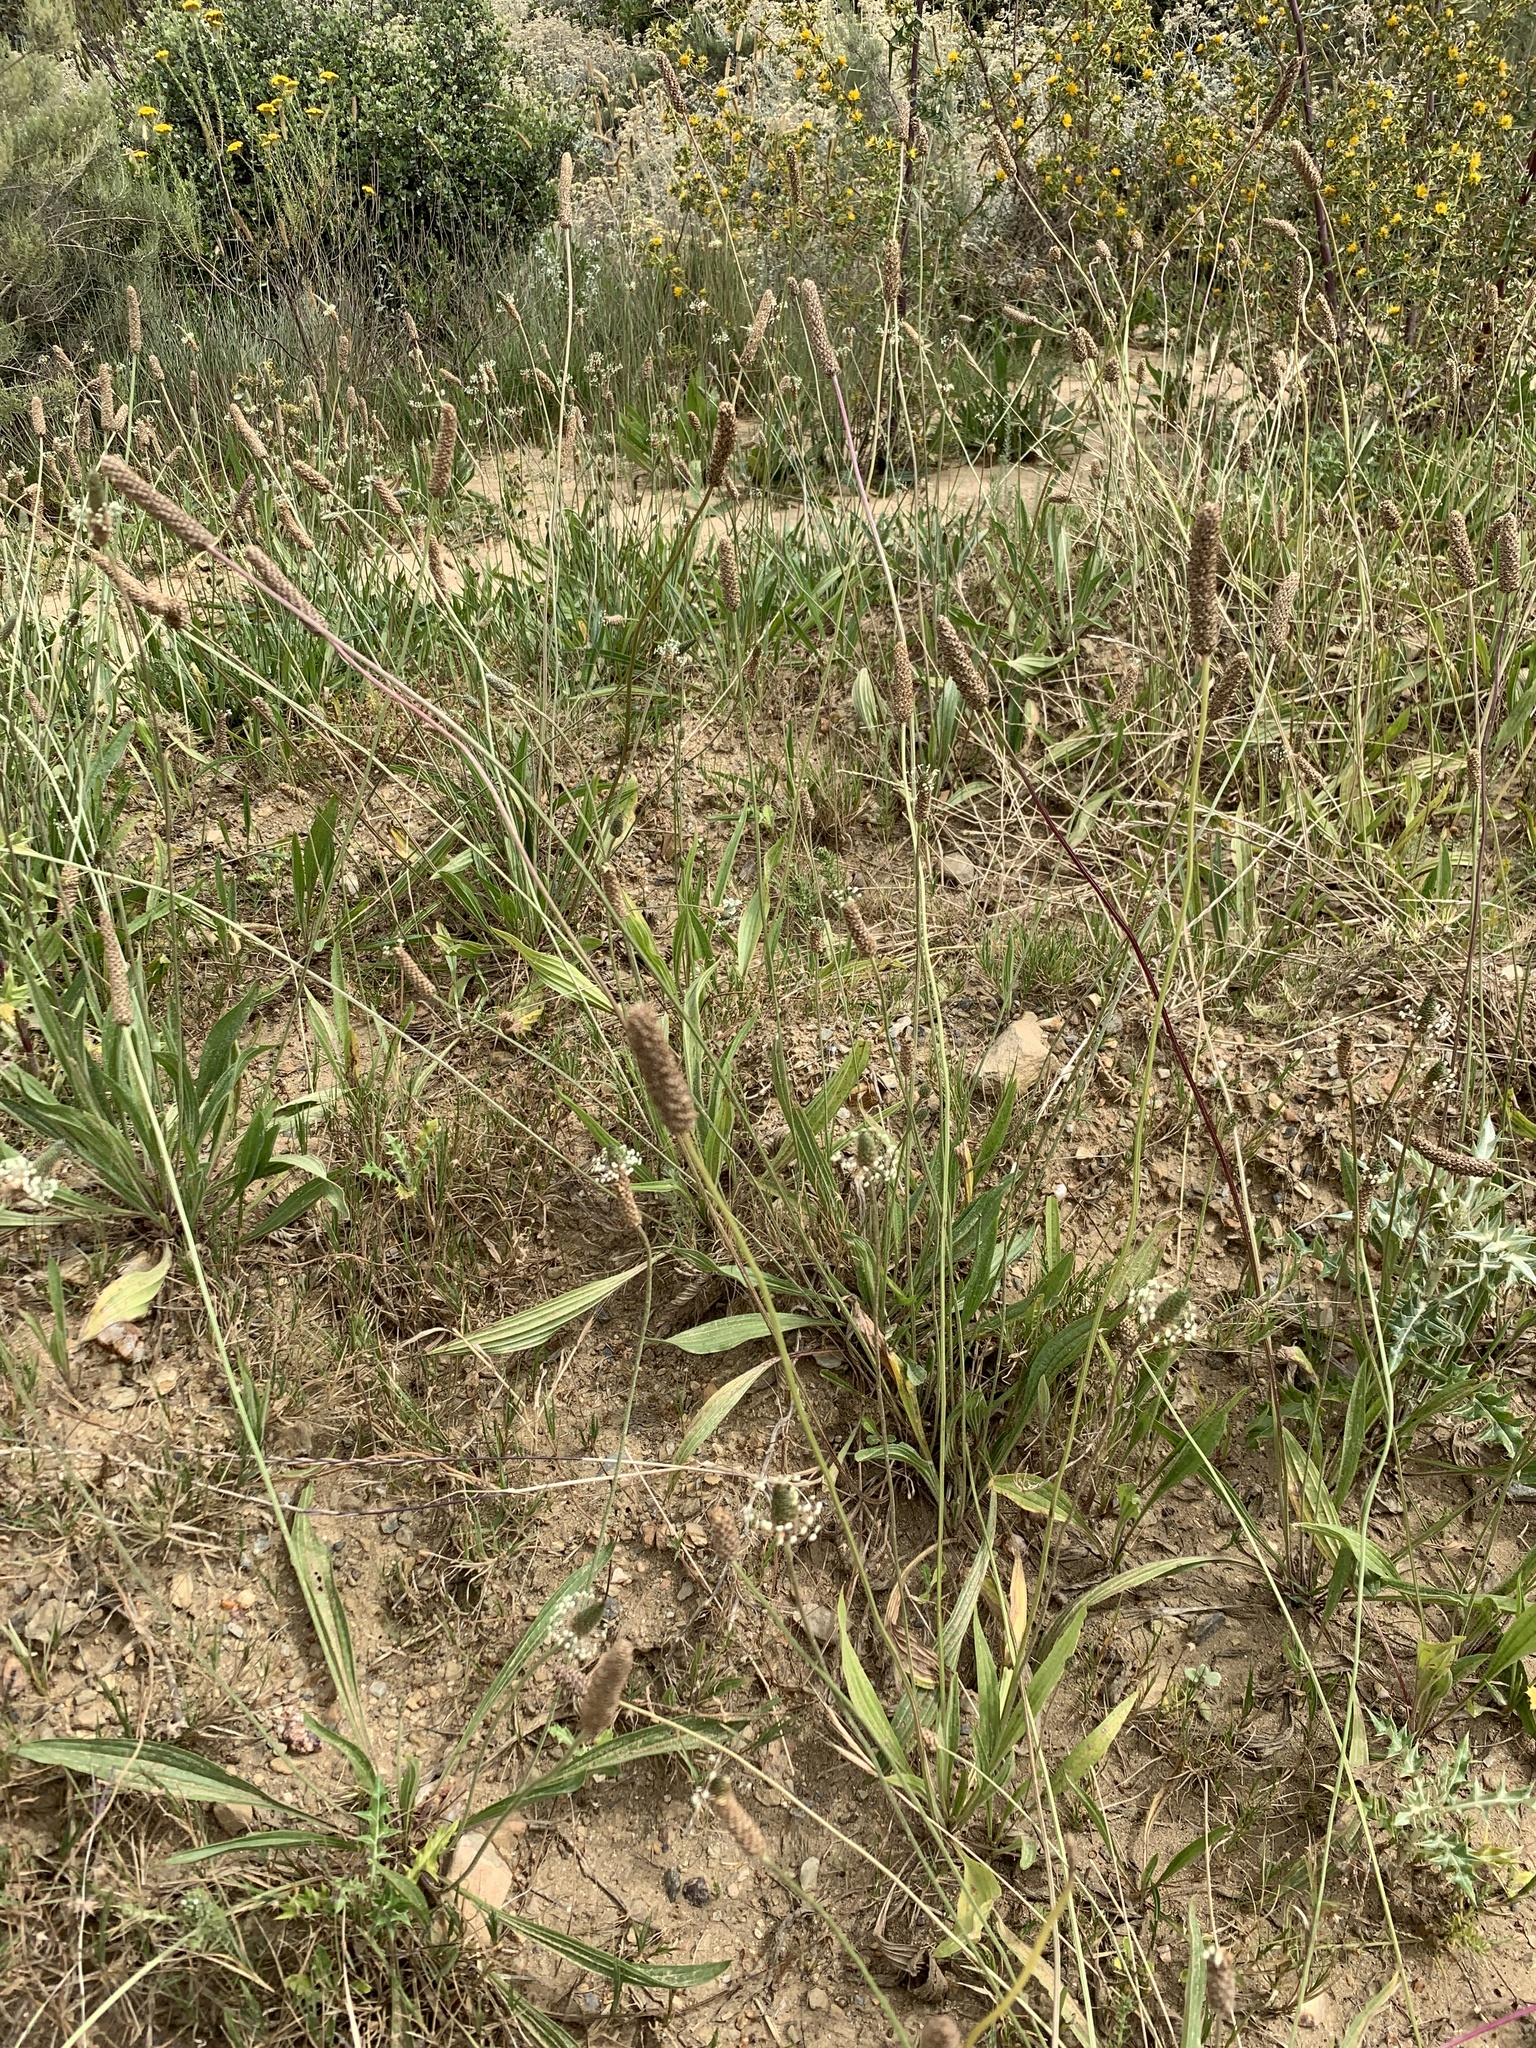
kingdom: Plantae
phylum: Tracheophyta
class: Magnoliopsida
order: Lamiales
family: Plantaginaceae
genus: Plantago
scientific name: Plantago lanceolata
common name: Ribwort plantain
